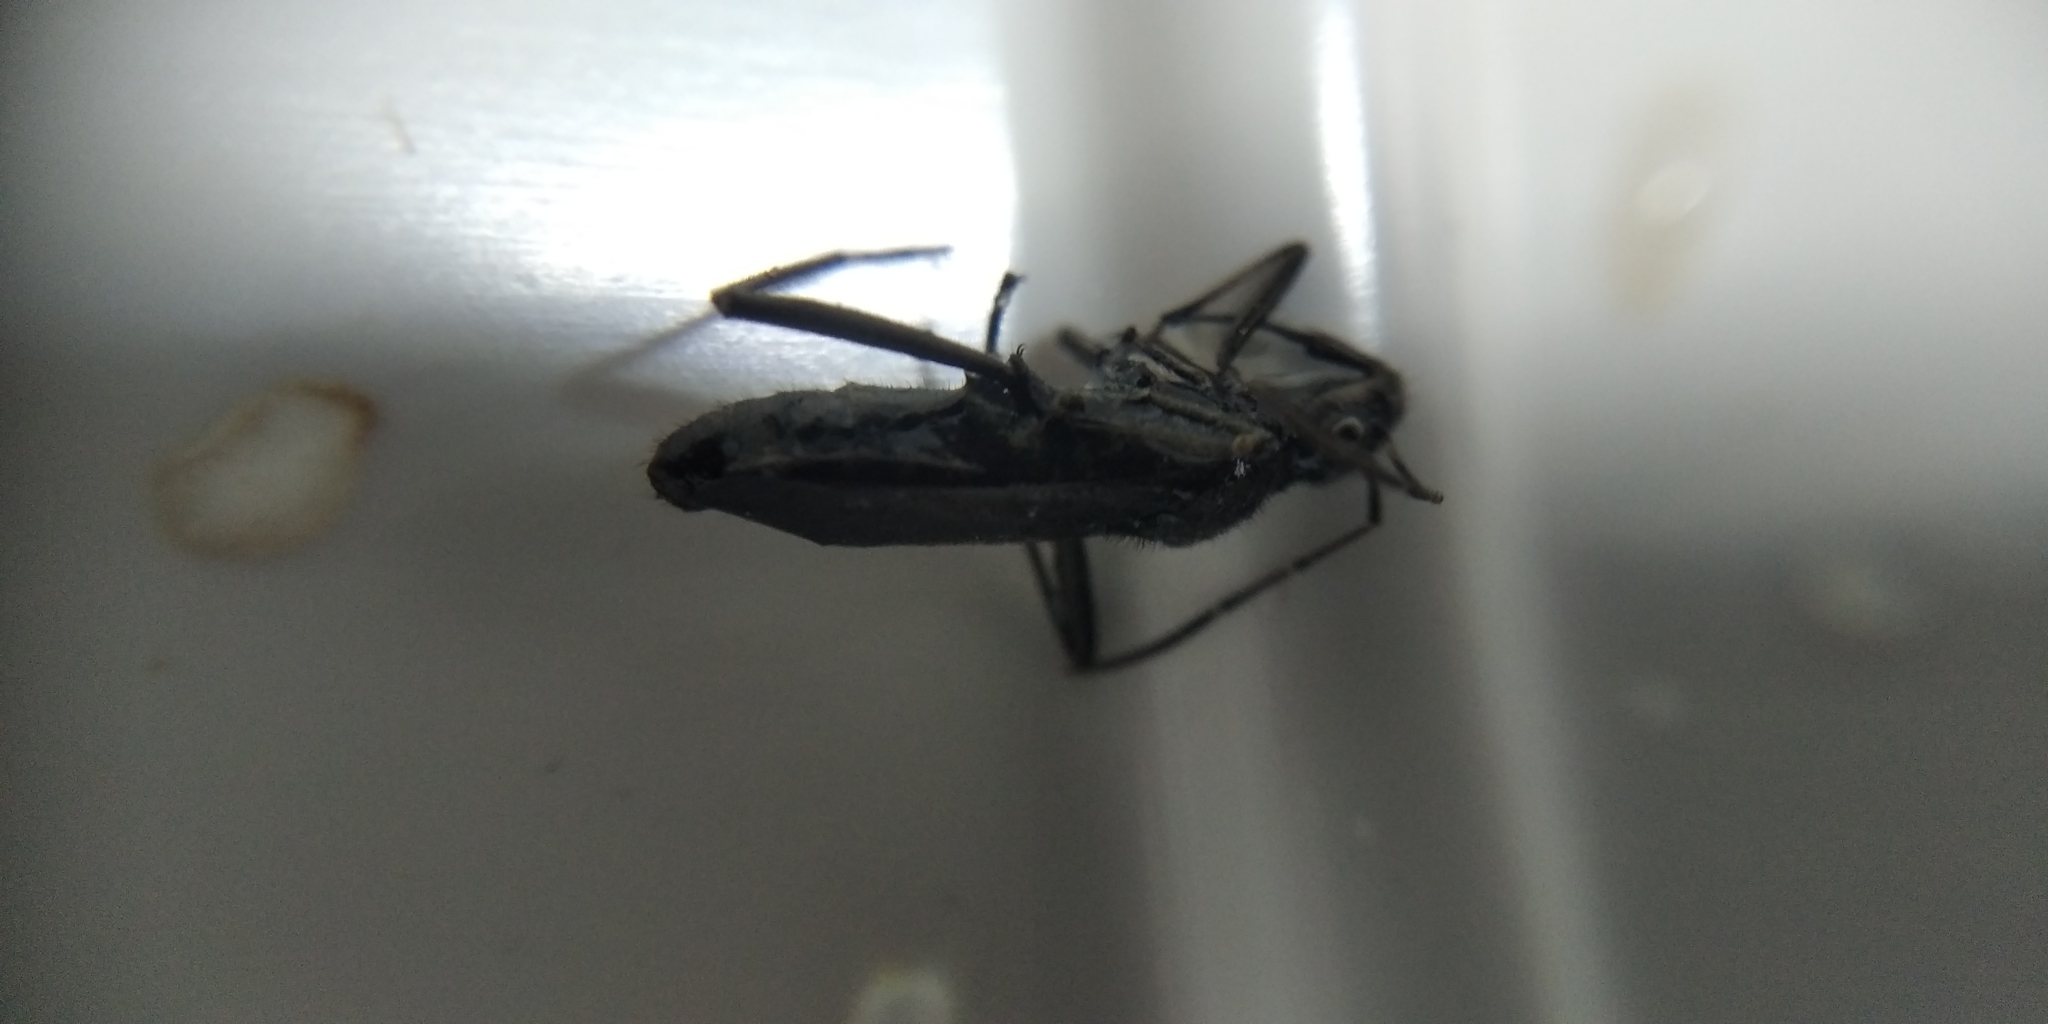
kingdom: Animalia
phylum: Arthropoda
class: Insecta
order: Hemiptera
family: Alydidae
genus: Alydus
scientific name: Alydus calcaratus
